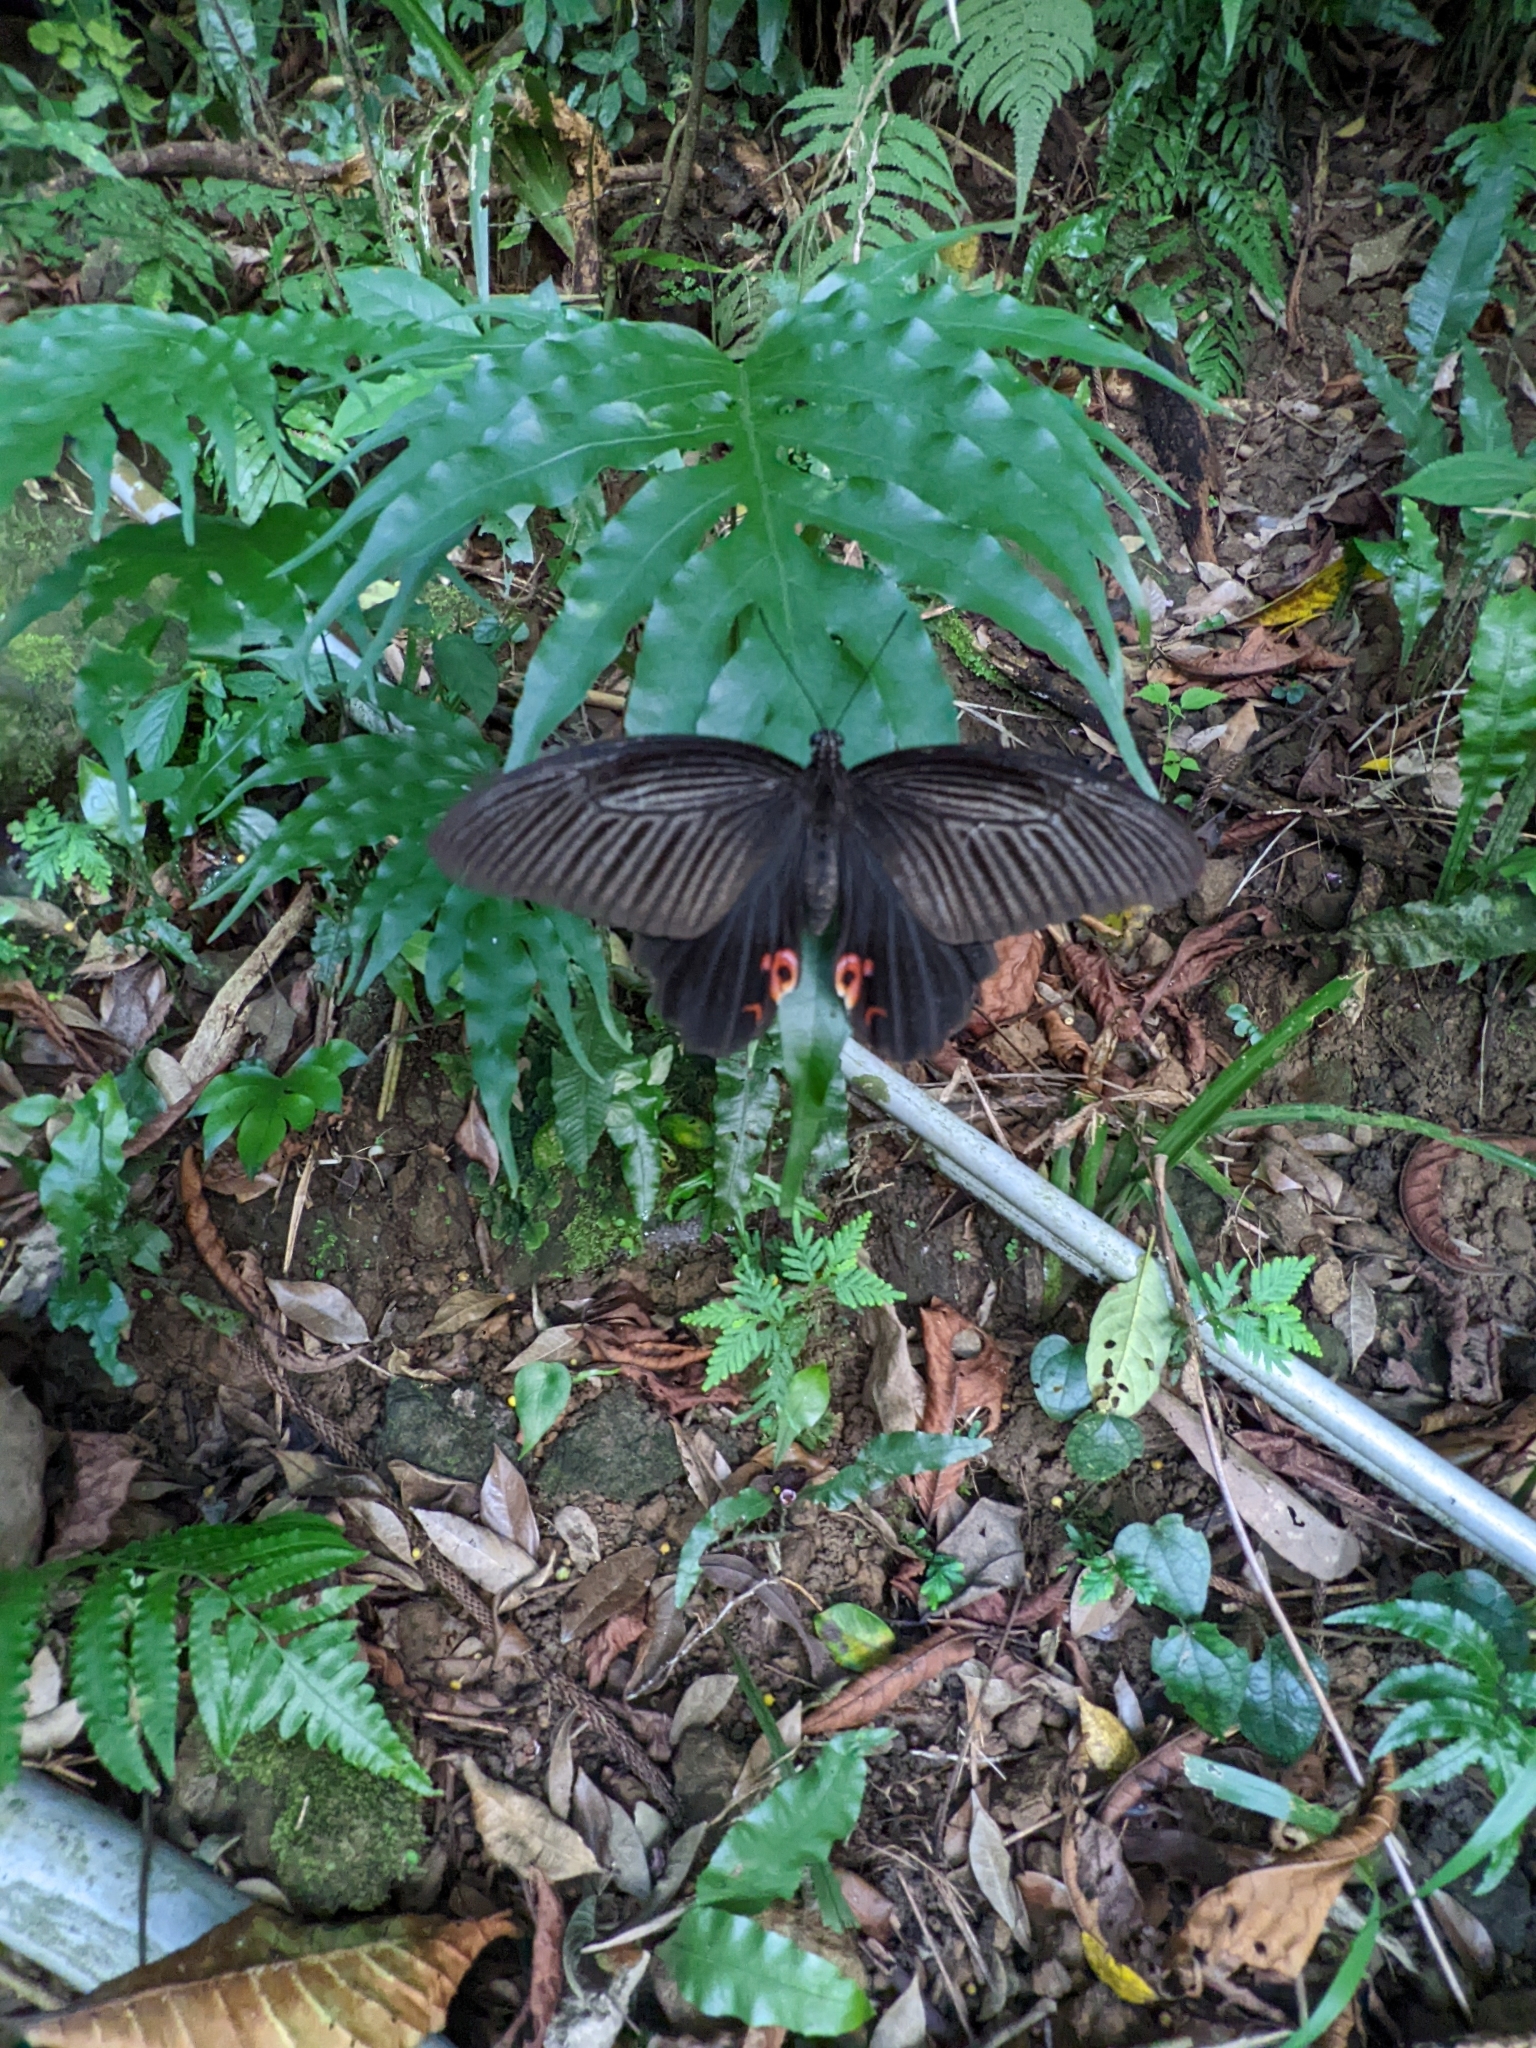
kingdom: Animalia
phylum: Arthropoda
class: Insecta
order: Lepidoptera
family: Papilionidae
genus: Papilio
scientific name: Papilio protenor
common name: Spangle
